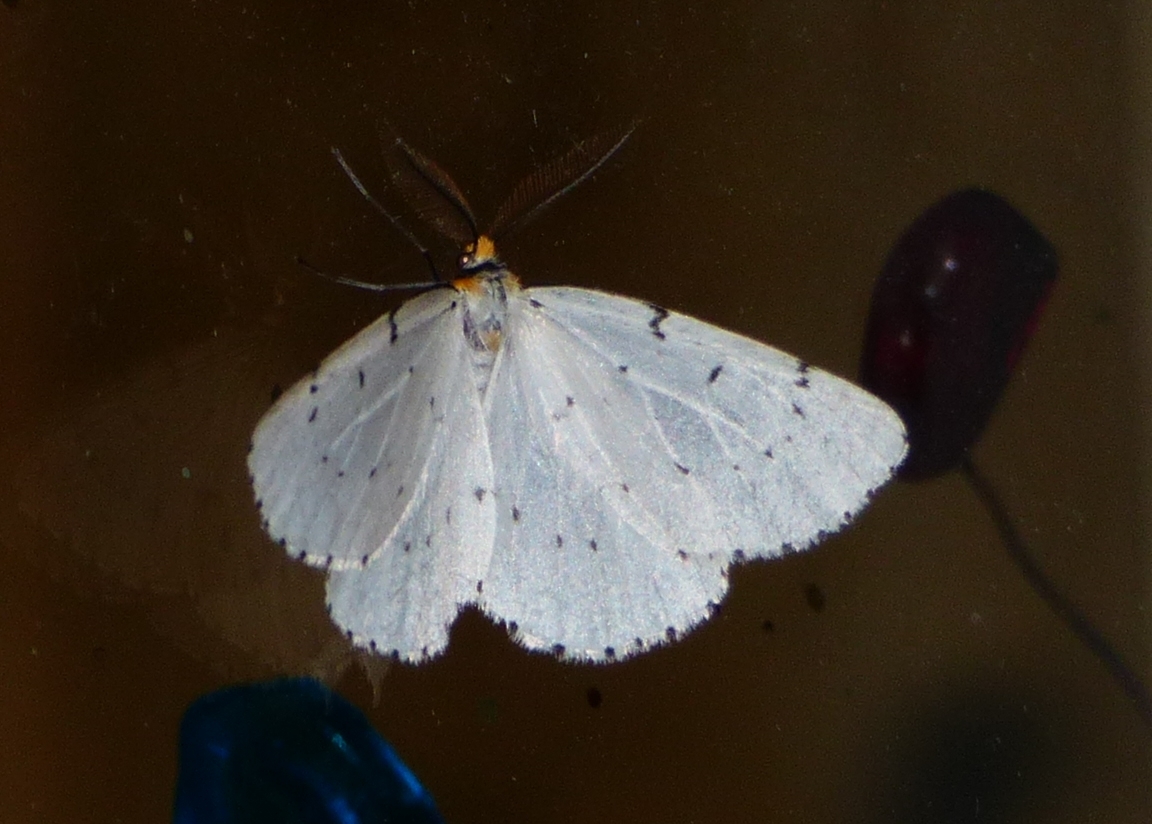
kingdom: Animalia
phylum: Arthropoda
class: Insecta
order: Lepidoptera
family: Geometridae
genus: Cingilia
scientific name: Cingilia catenaria
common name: Chain-dotted geometer
